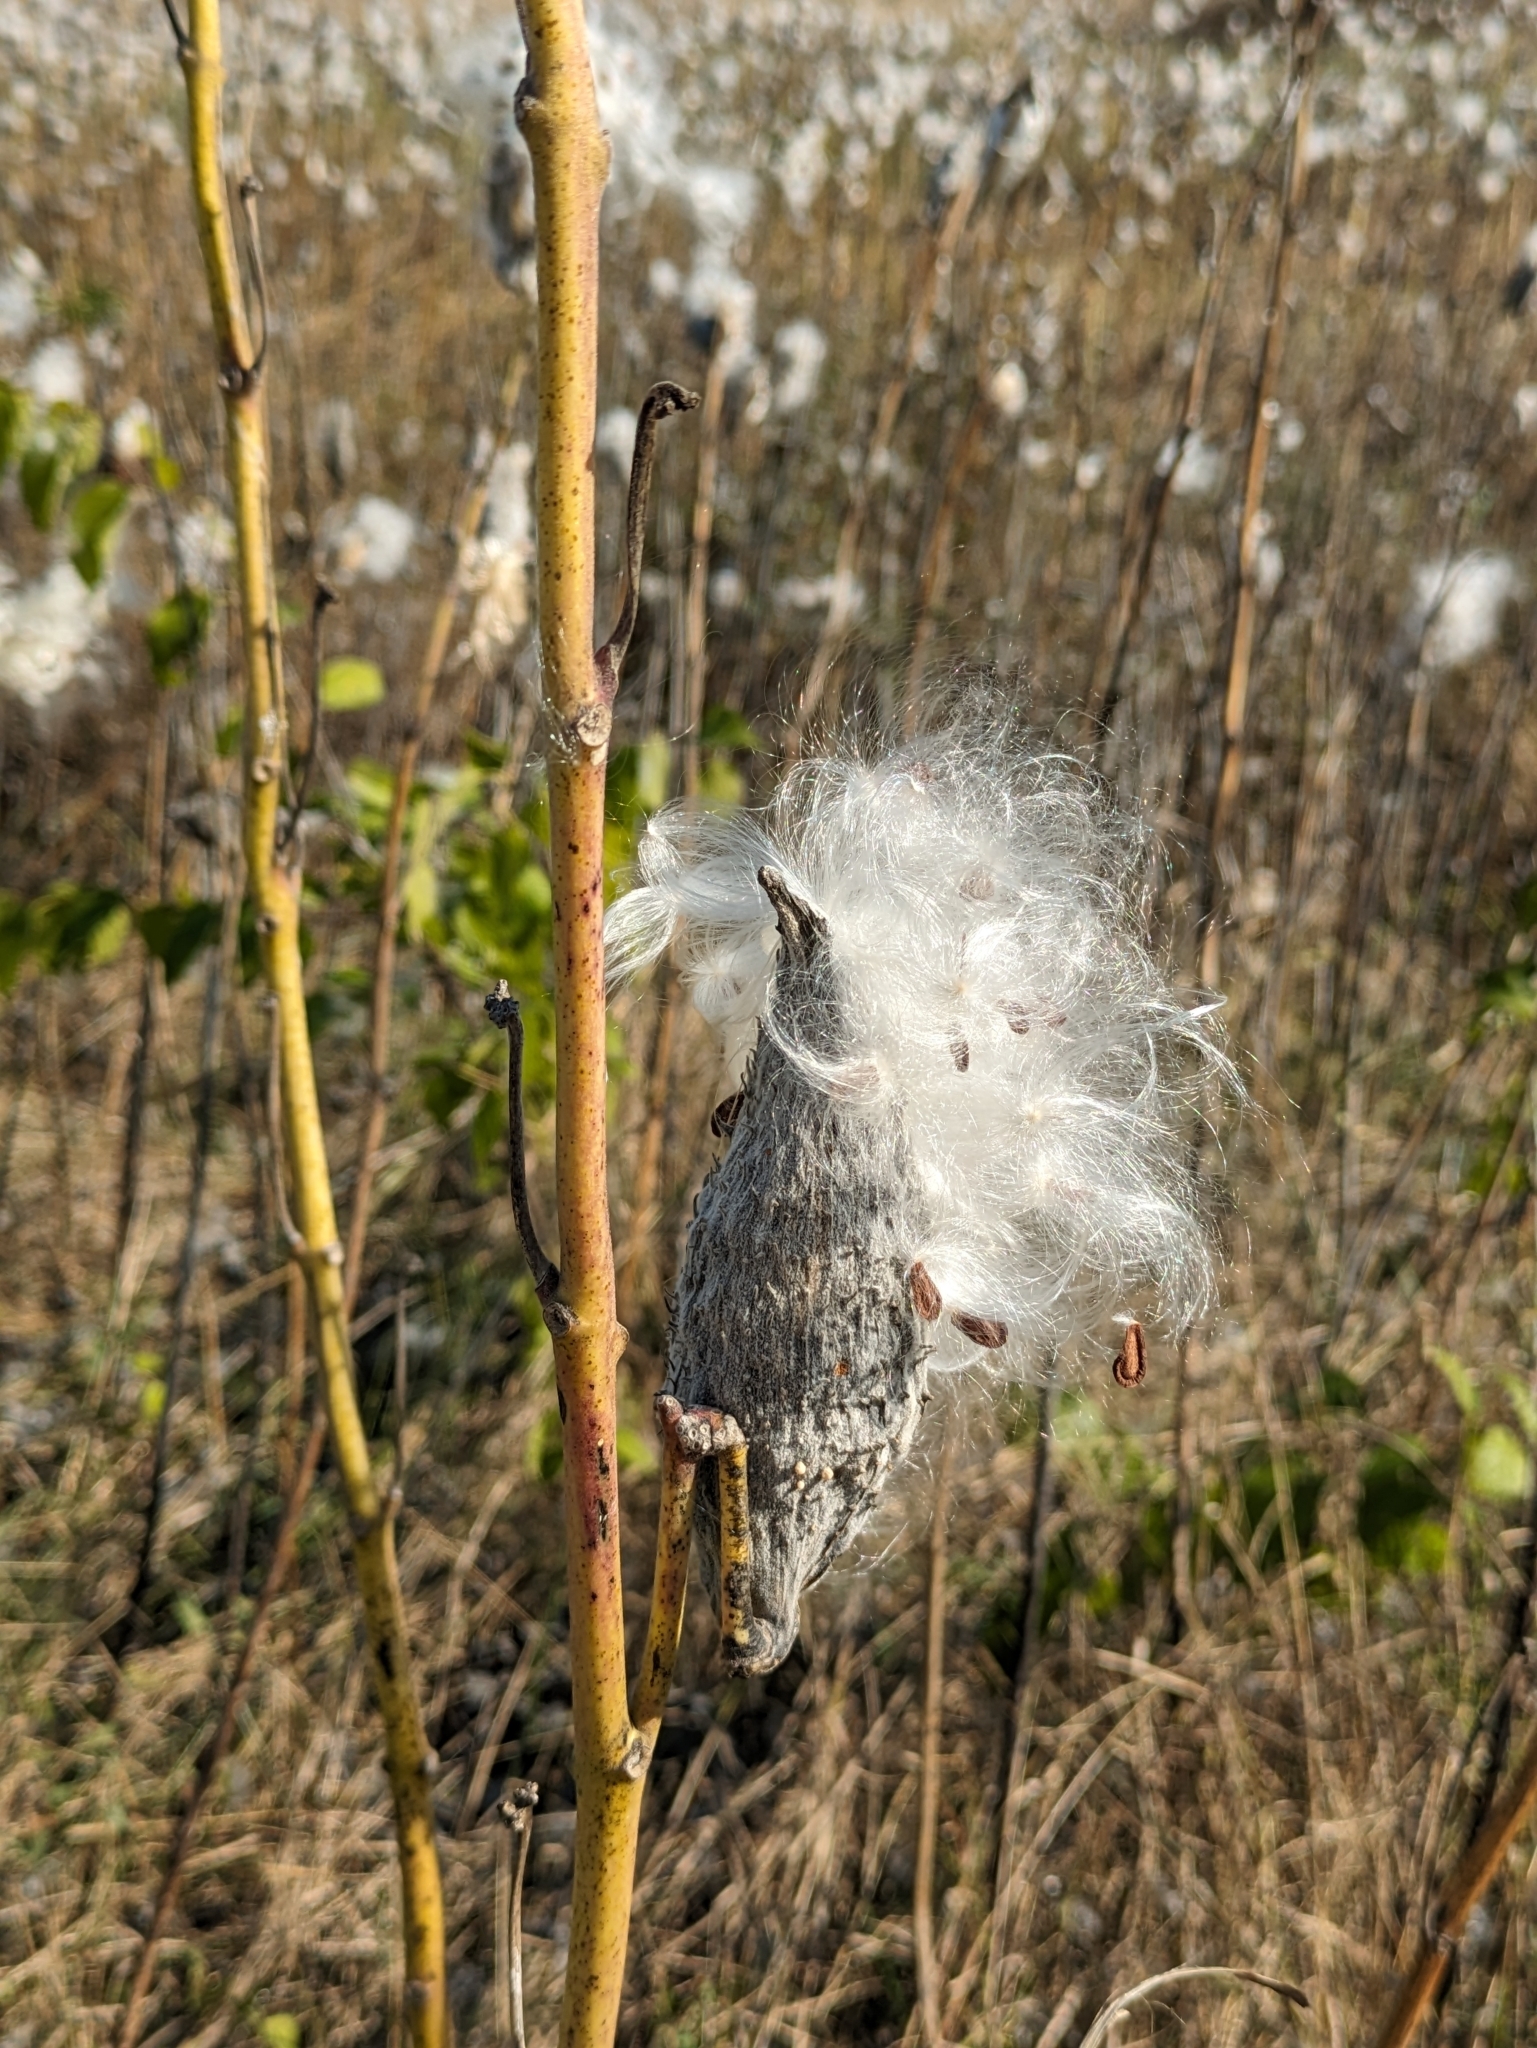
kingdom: Plantae
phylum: Tracheophyta
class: Magnoliopsida
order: Gentianales
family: Apocynaceae
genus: Asclepias
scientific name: Asclepias syriaca
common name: Common milkweed
